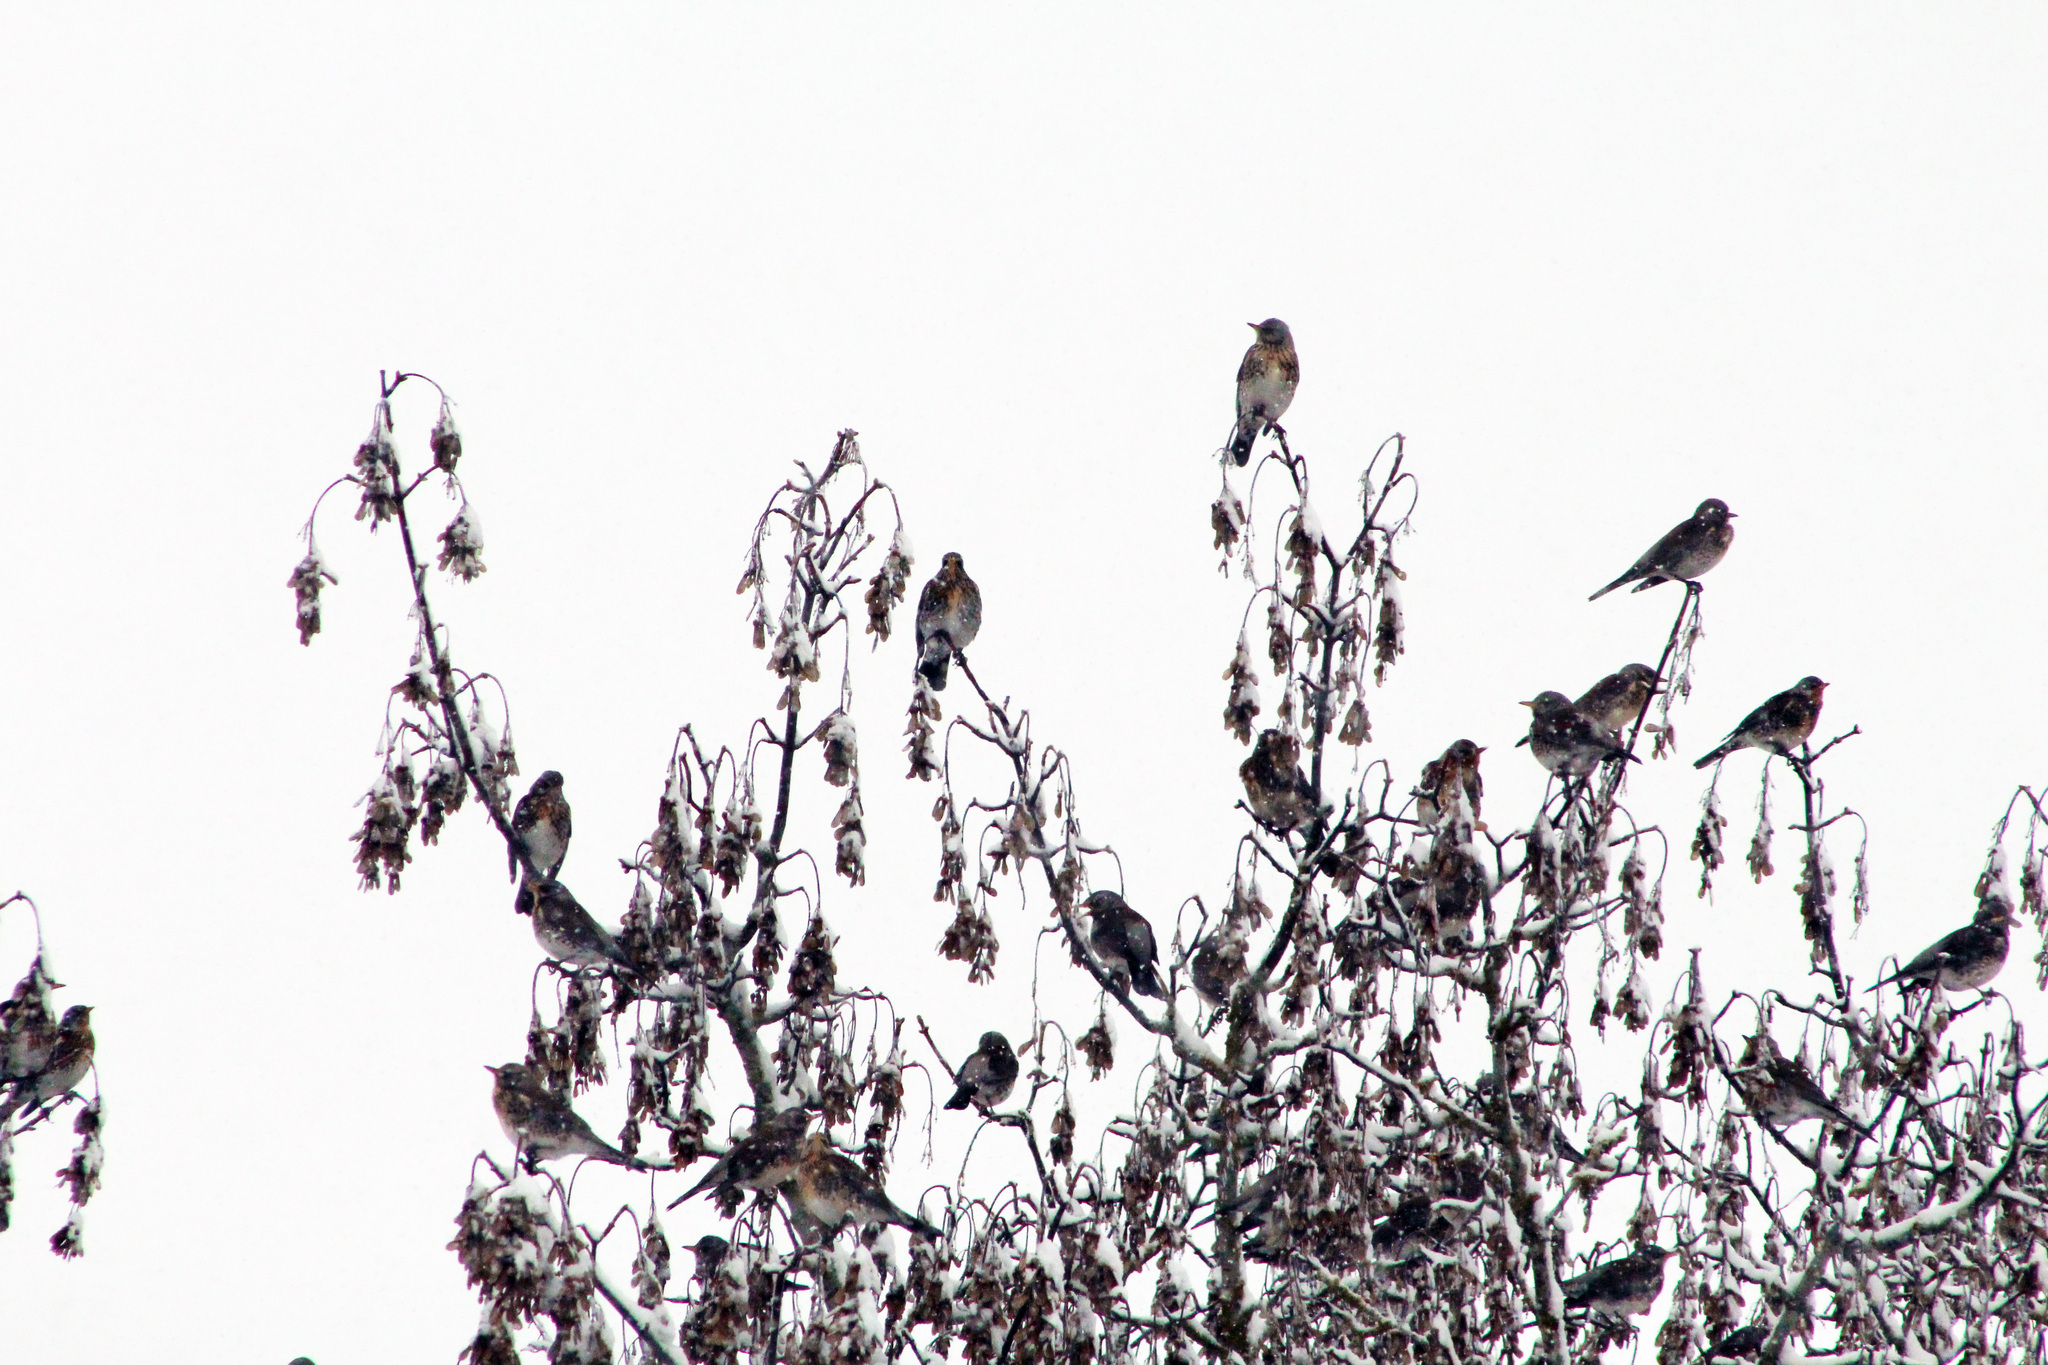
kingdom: Animalia
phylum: Chordata
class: Aves
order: Passeriformes
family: Turdidae
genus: Turdus
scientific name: Turdus pilaris
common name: Fieldfare
